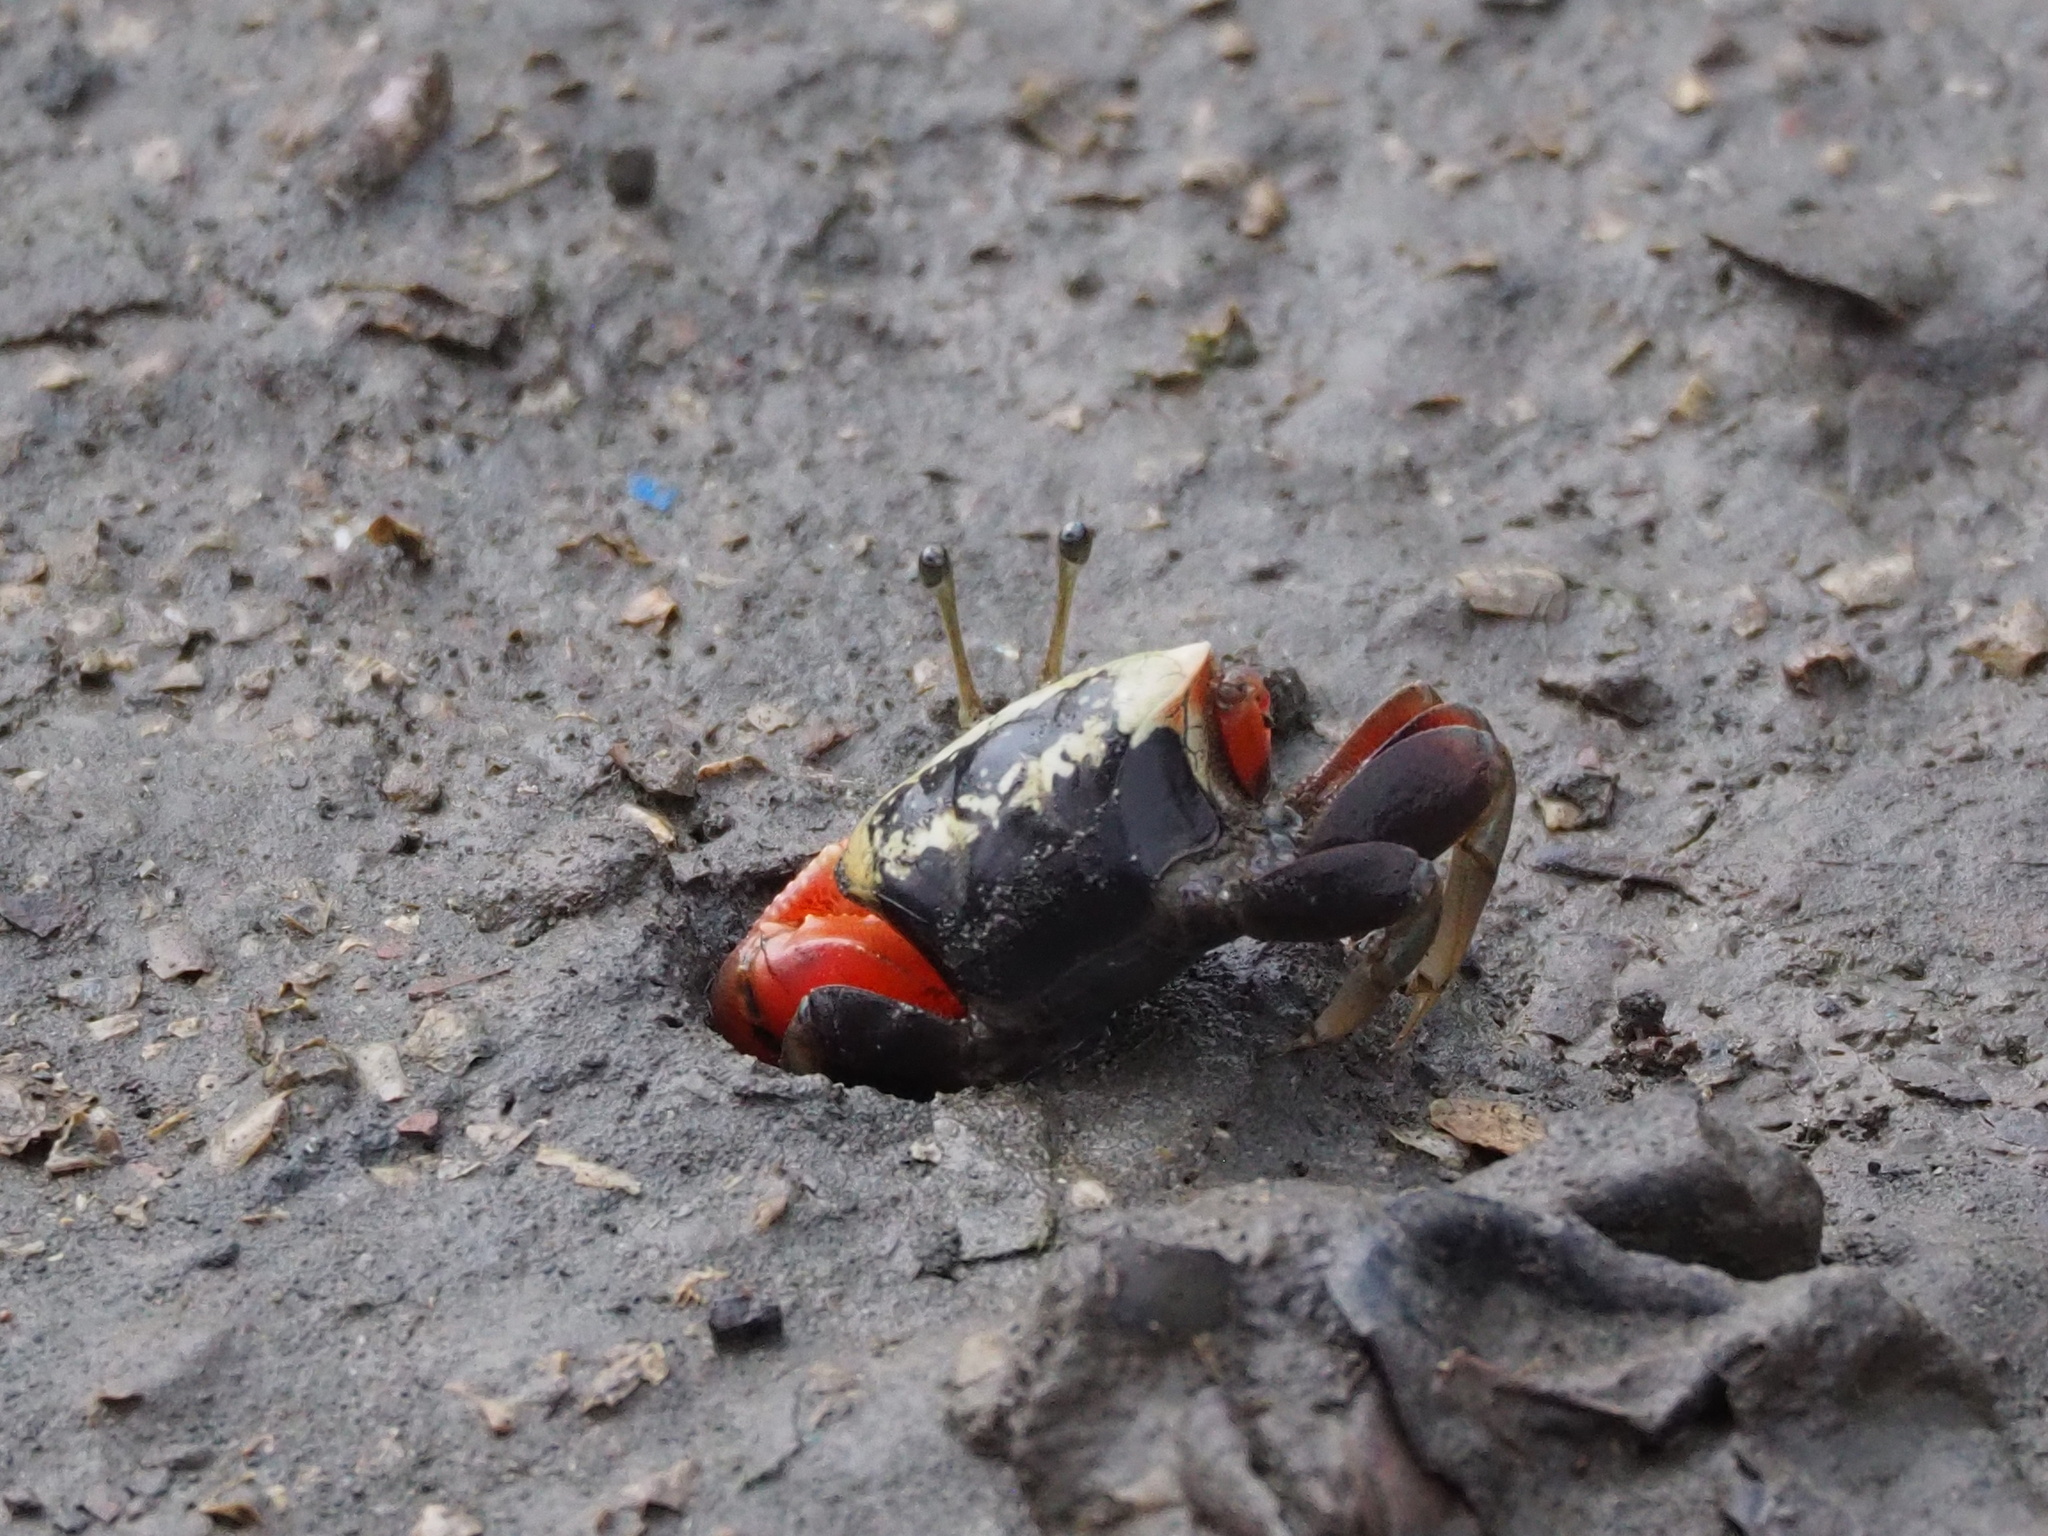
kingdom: Animalia
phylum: Arthropoda
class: Malacostraca
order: Decapoda
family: Ocypodidae
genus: Tubuca
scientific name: Tubuca arcuata
